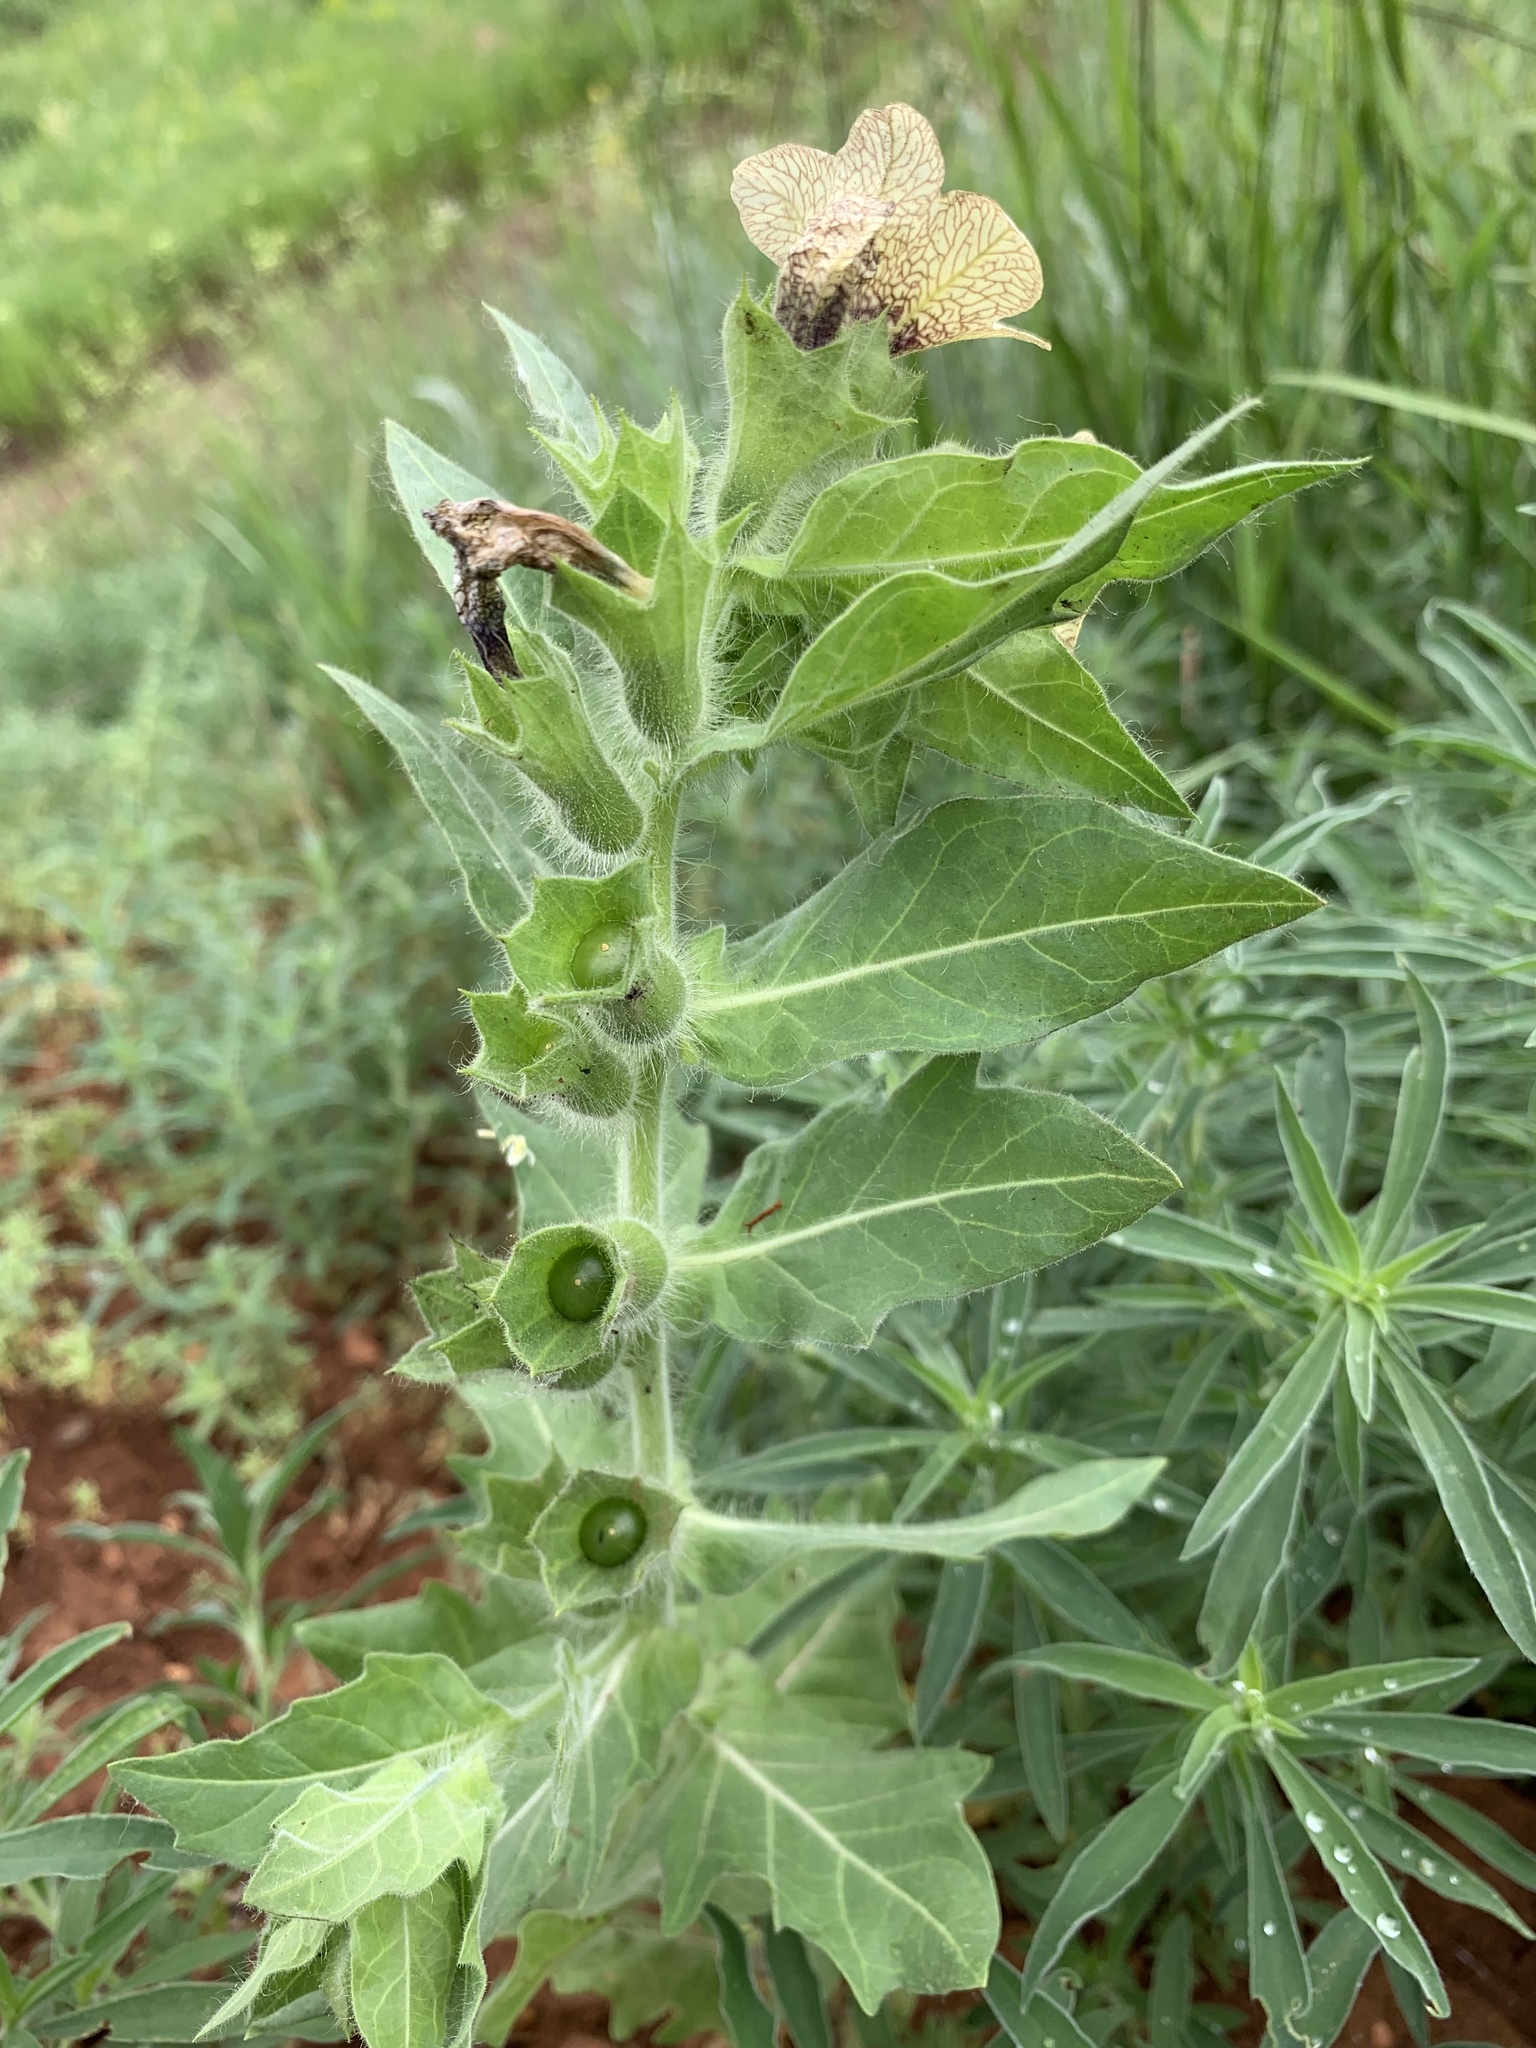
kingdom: Plantae
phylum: Tracheophyta
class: Magnoliopsida
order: Solanales
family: Solanaceae
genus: Hyoscyamus
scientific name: Hyoscyamus niger
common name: Henbane
